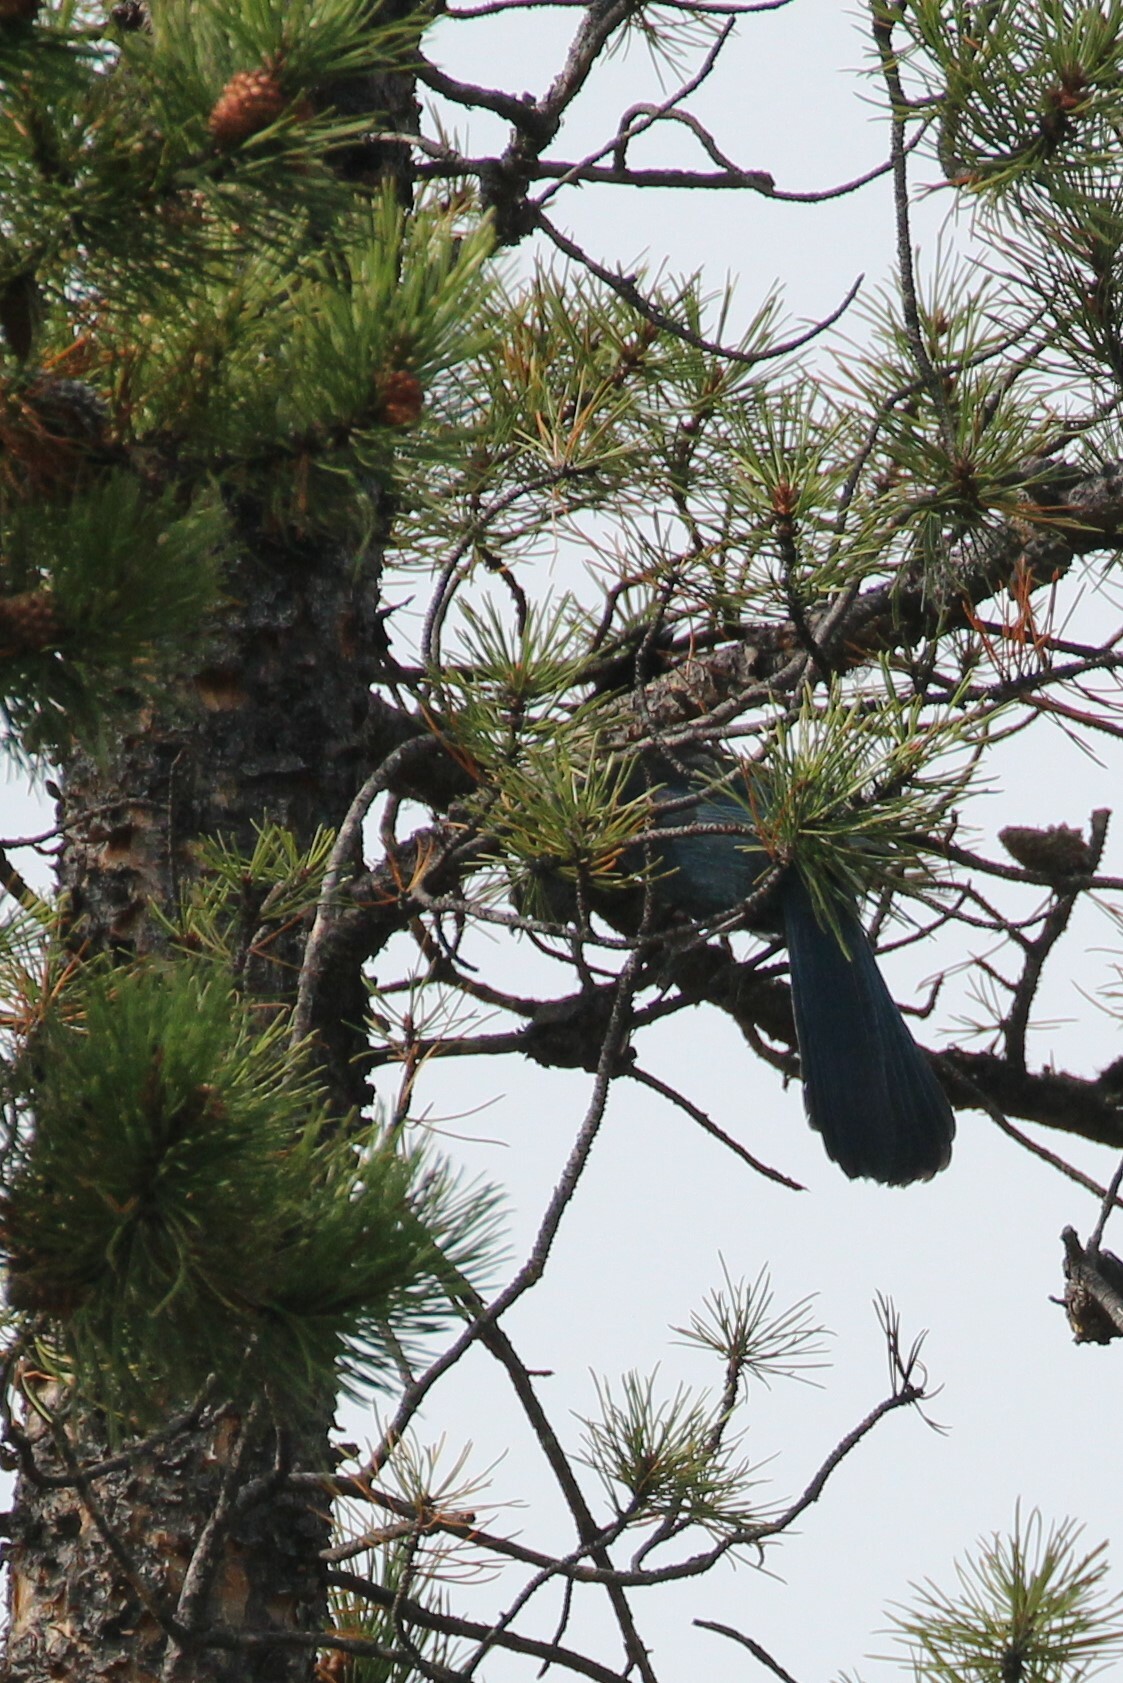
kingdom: Animalia
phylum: Chordata
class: Aves
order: Passeriformes
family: Corvidae
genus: Cyanocitta
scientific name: Cyanocitta stelleri
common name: Steller's jay
